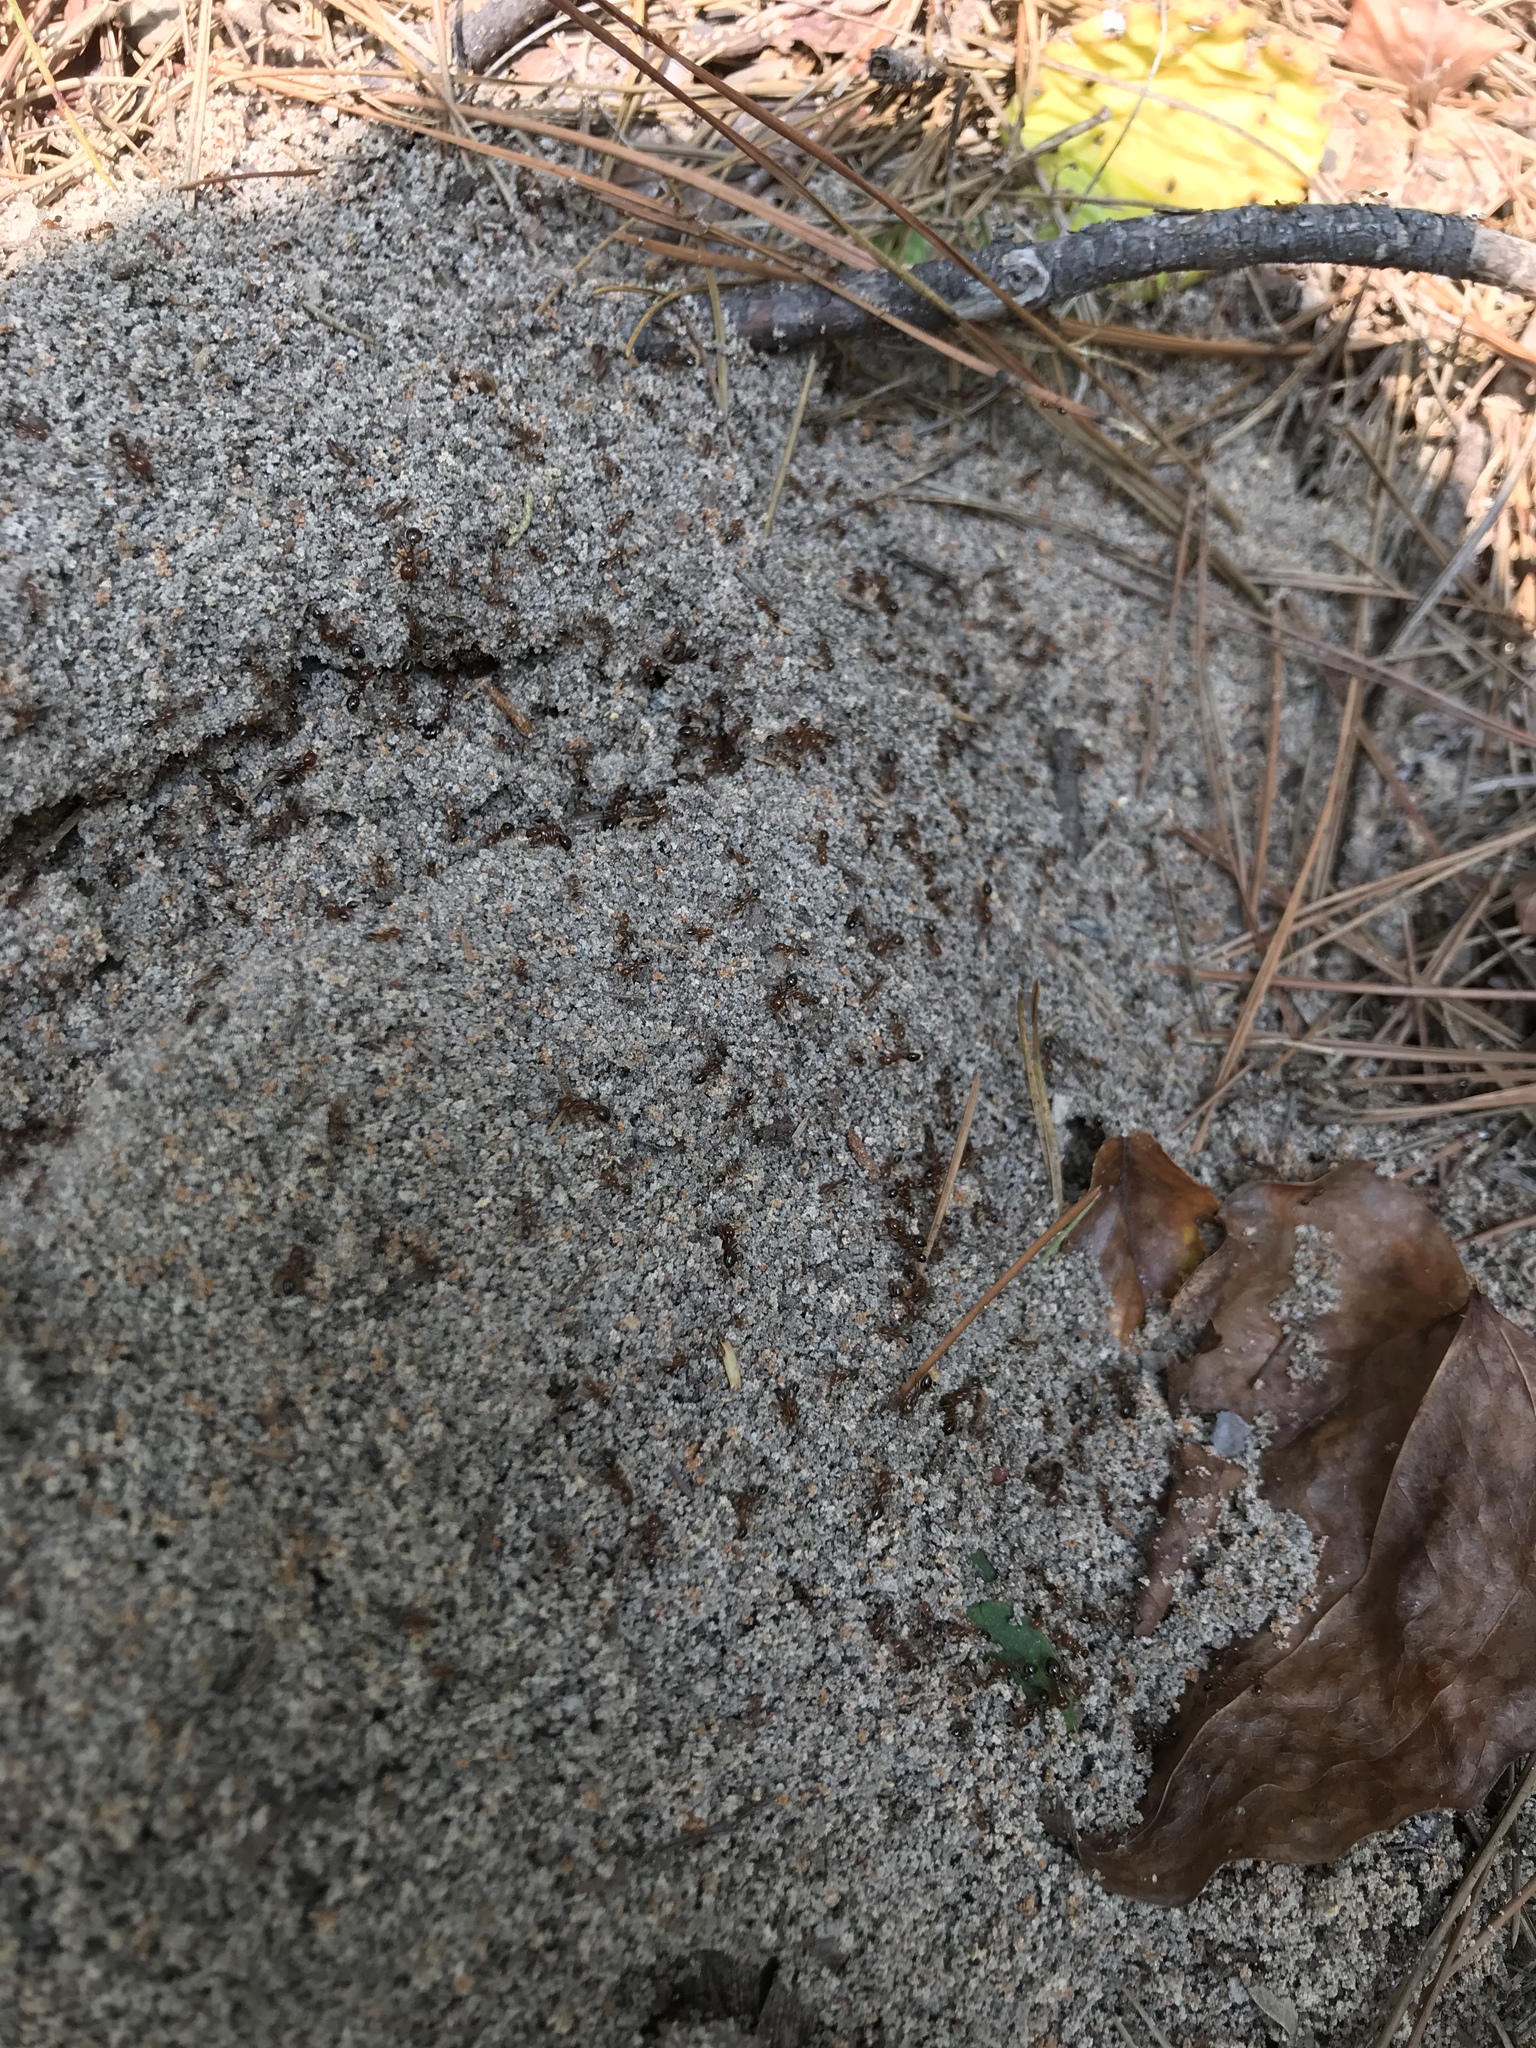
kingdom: Animalia
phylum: Arthropoda
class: Insecta
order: Hymenoptera
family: Formicidae
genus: Solenopsis
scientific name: Solenopsis invicta
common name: Red imported fire ant
